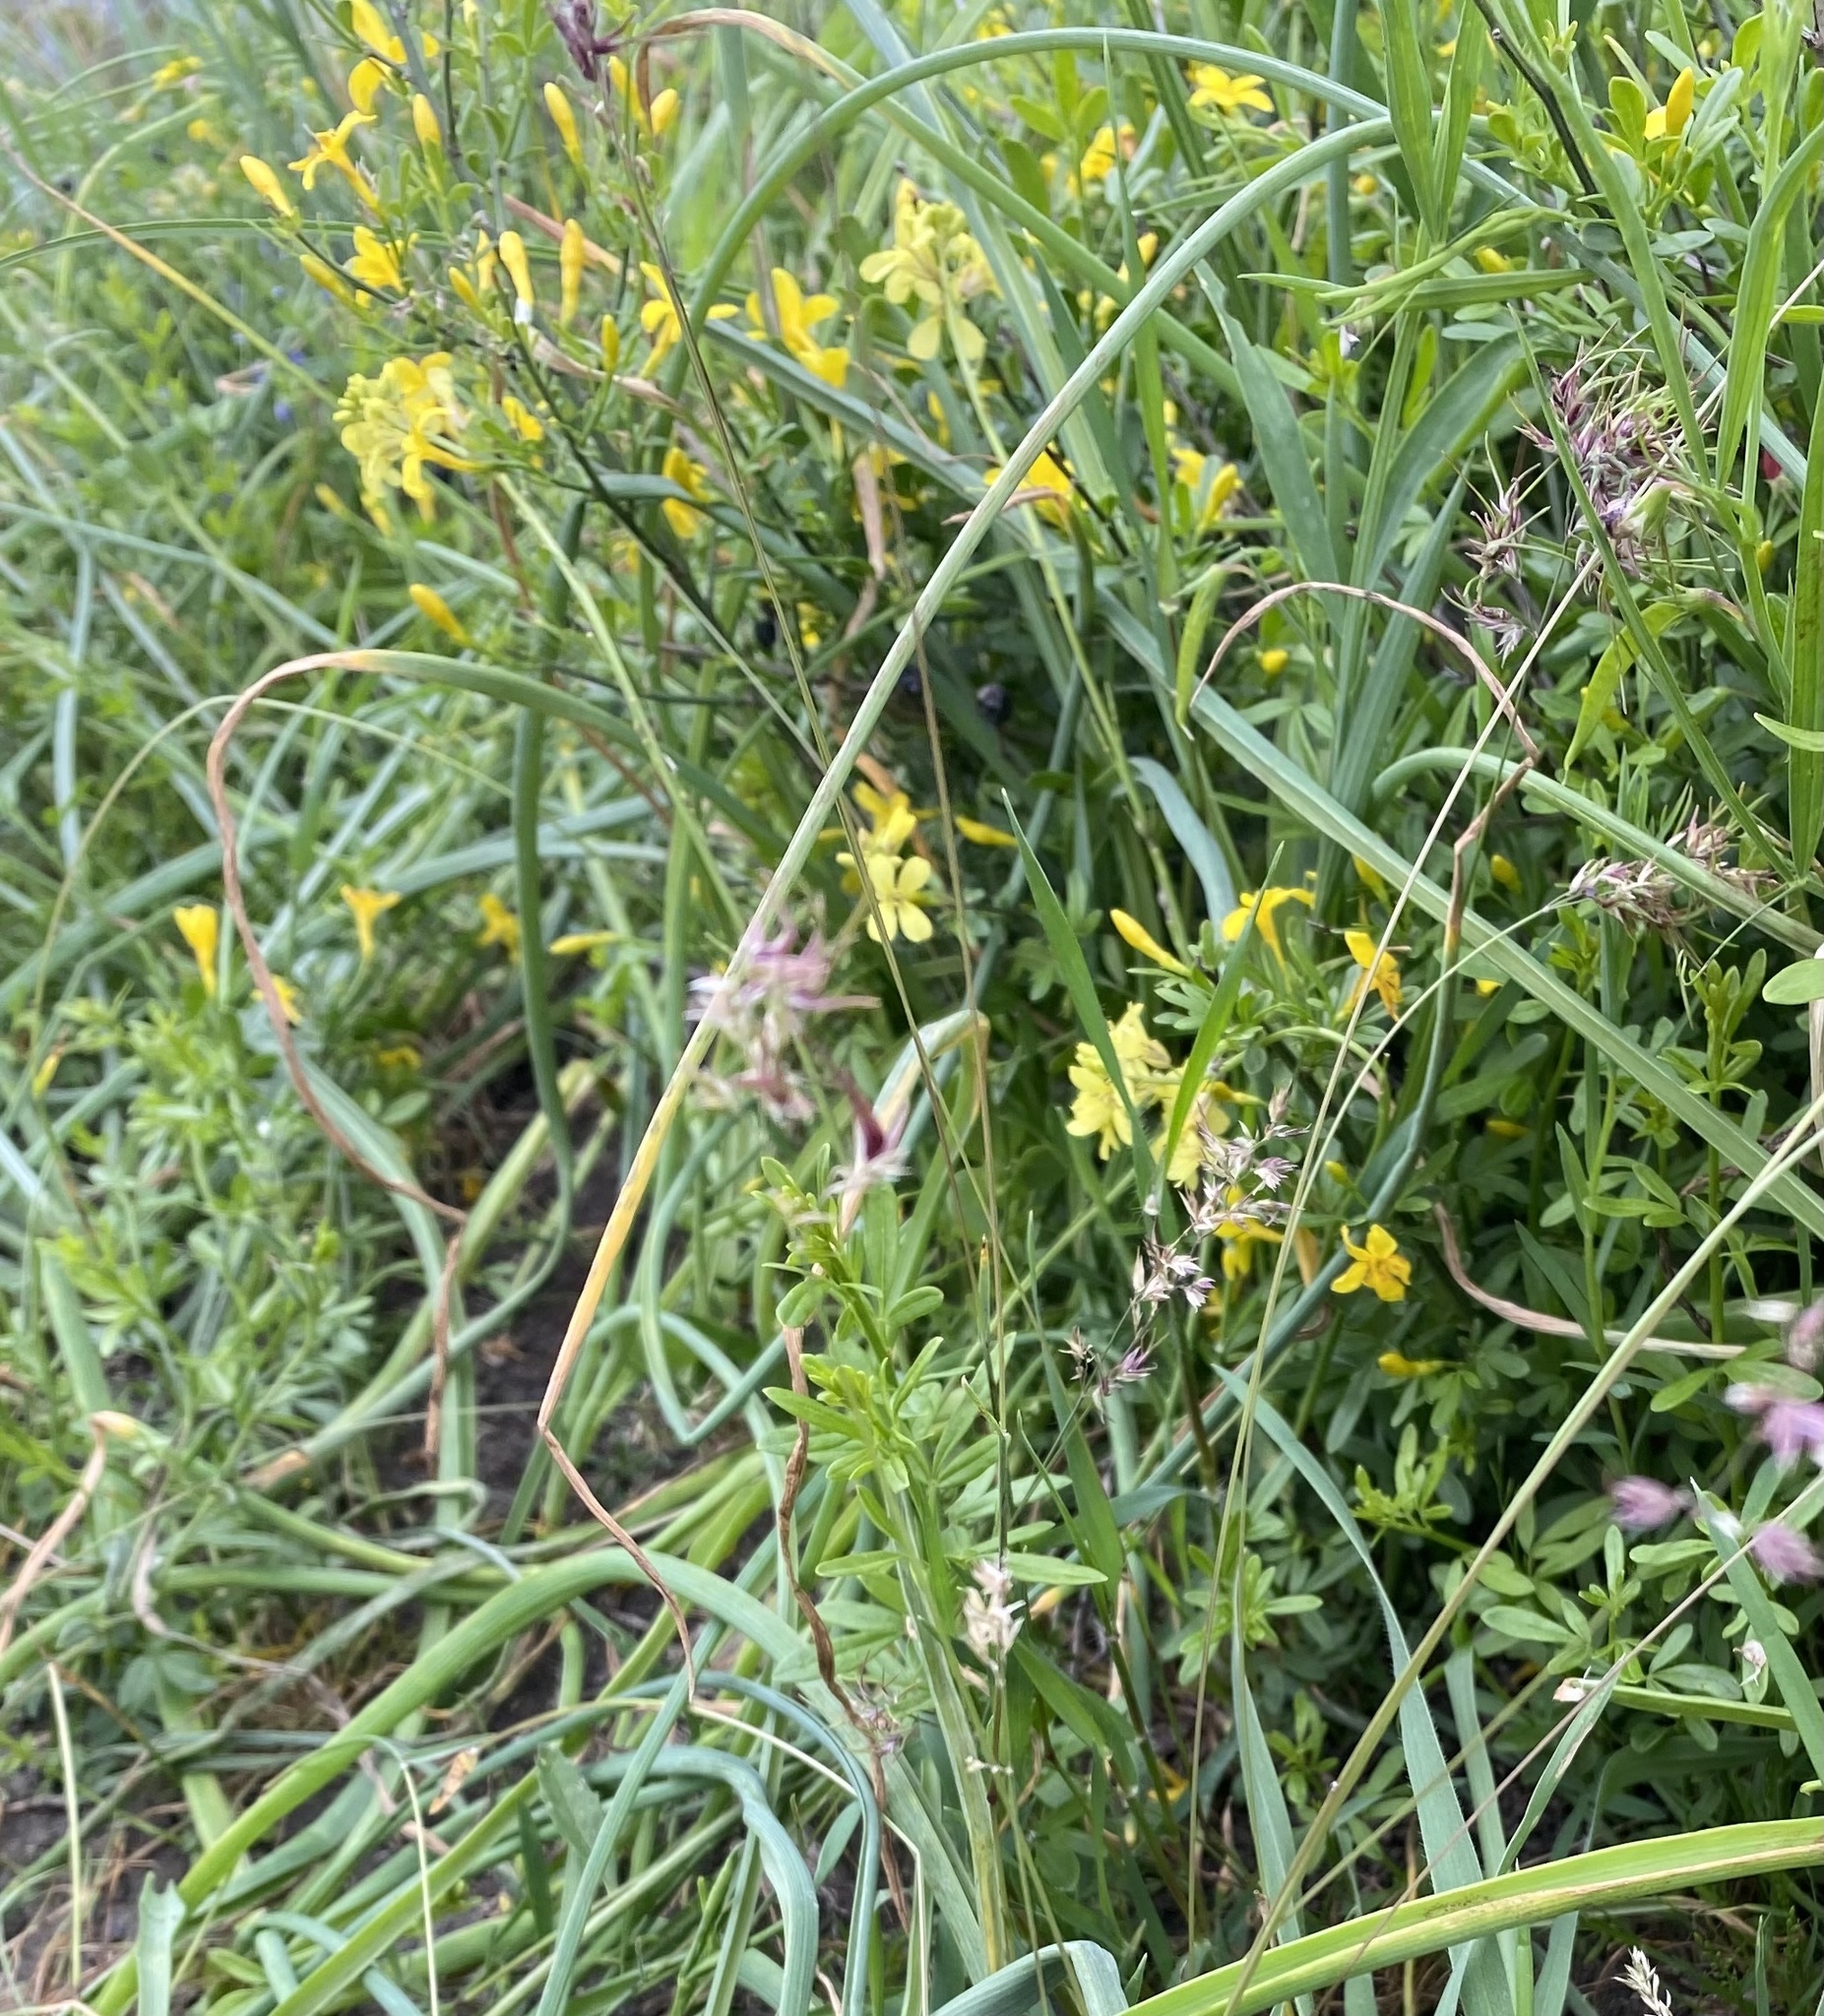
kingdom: Plantae
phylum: Tracheophyta
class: Magnoliopsida
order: Lamiales
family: Oleaceae
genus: Chrysojasminum
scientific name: Chrysojasminum fruticans
